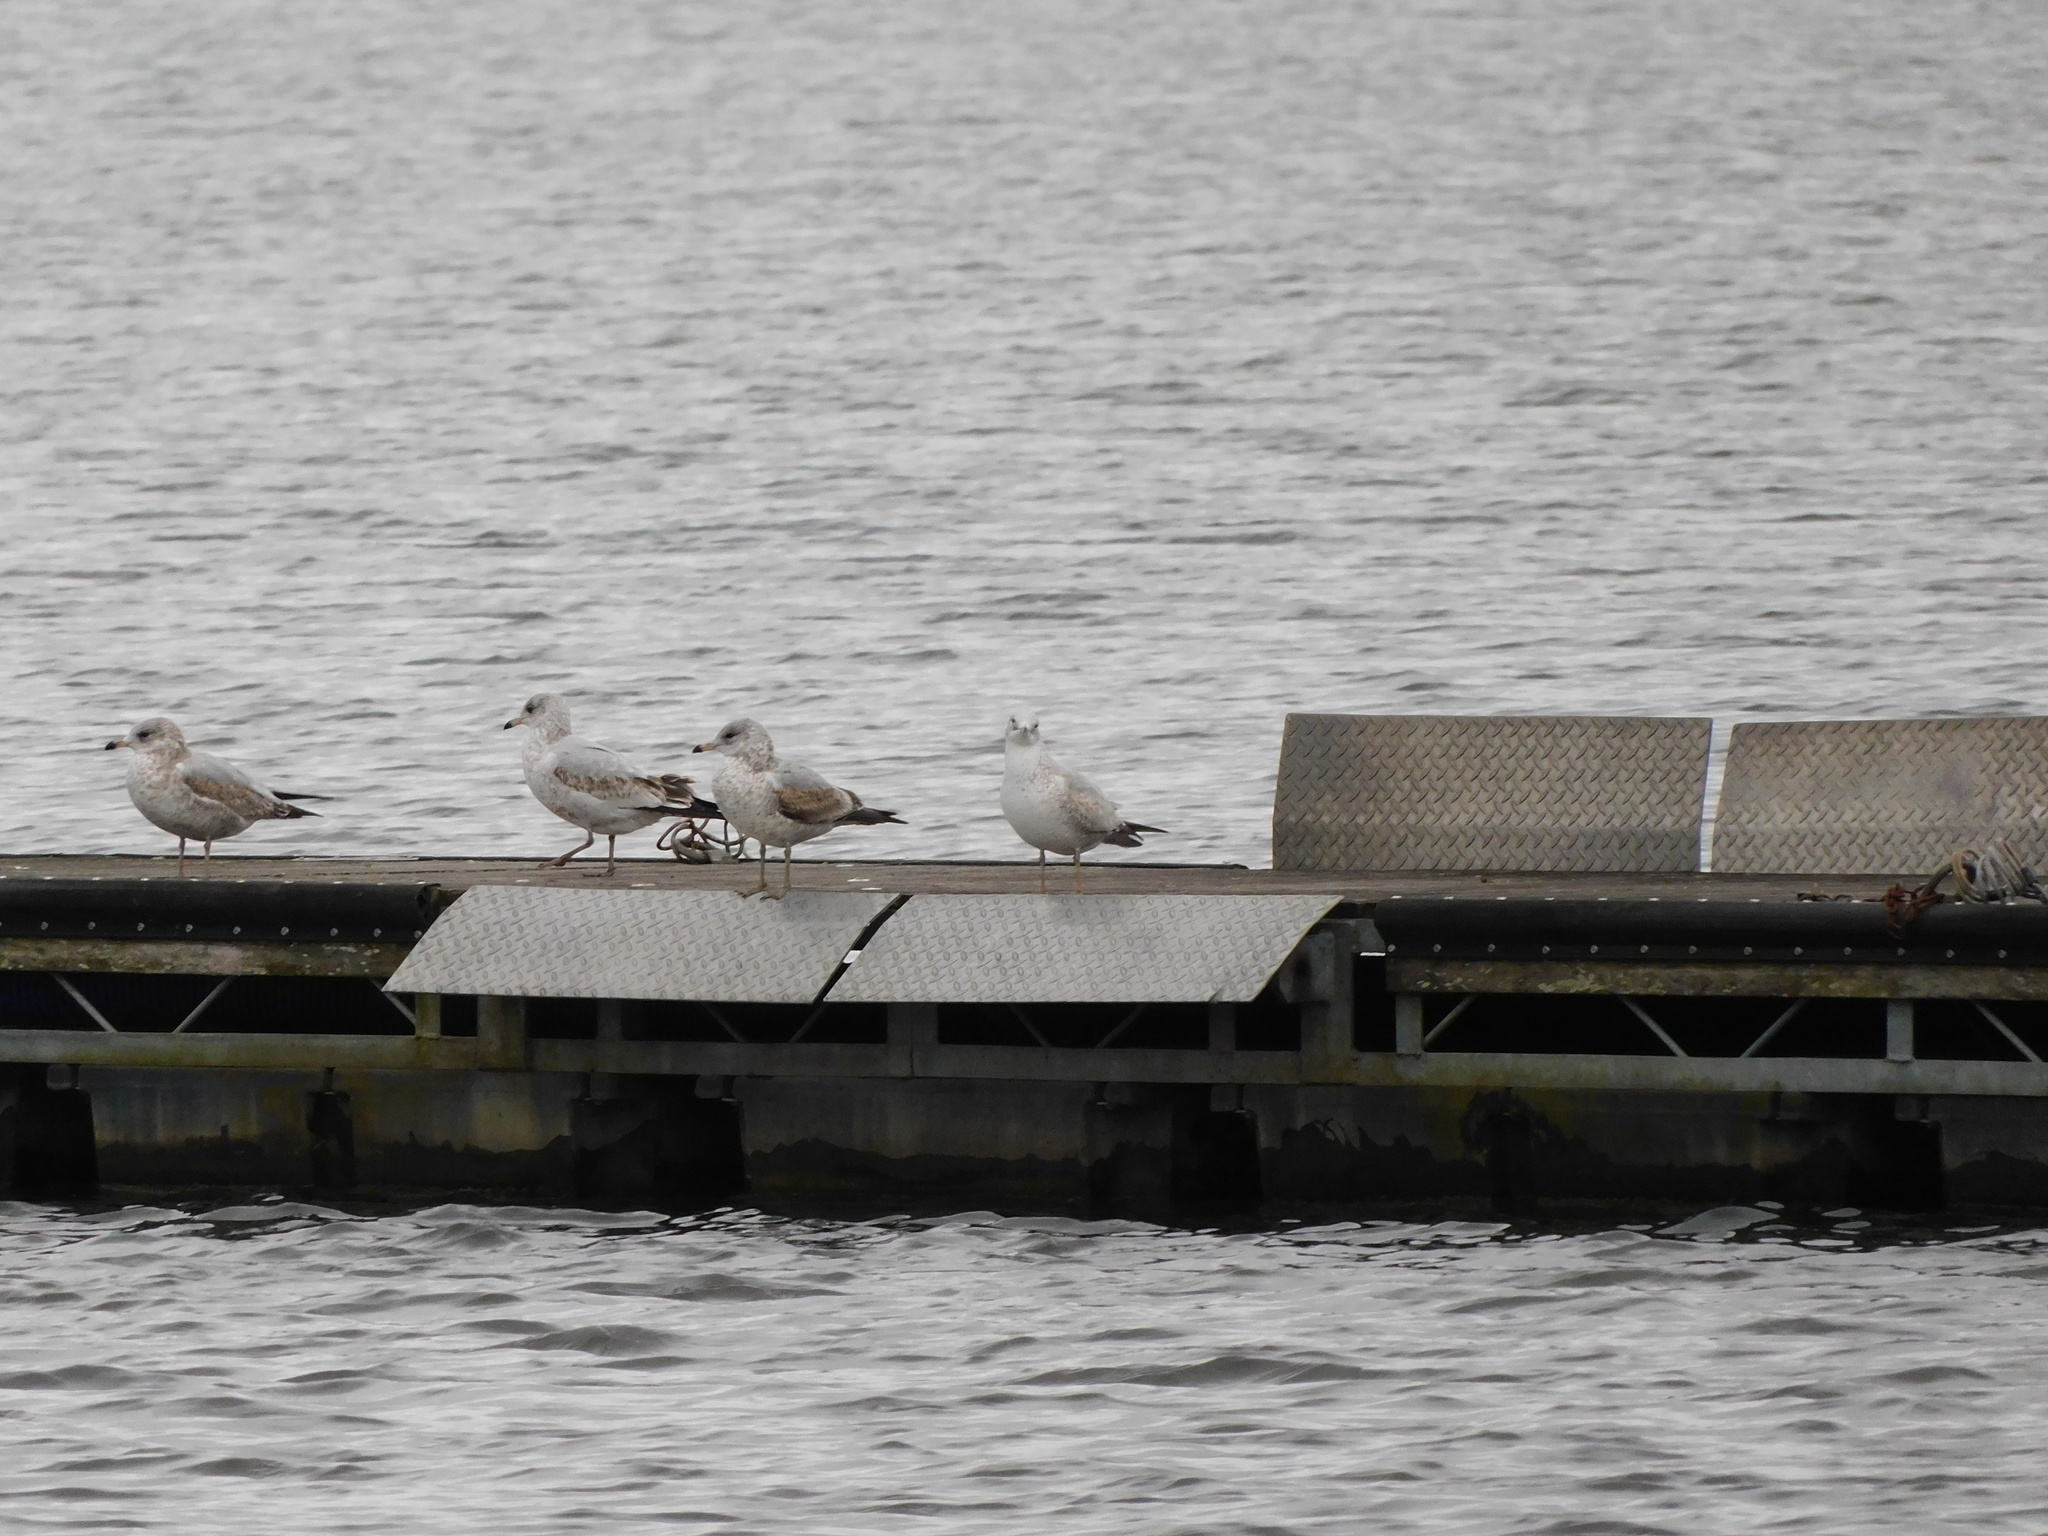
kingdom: Animalia
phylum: Chordata
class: Aves
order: Charadriiformes
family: Laridae
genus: Larus
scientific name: Larus delawarensis
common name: Ring-billed gull
